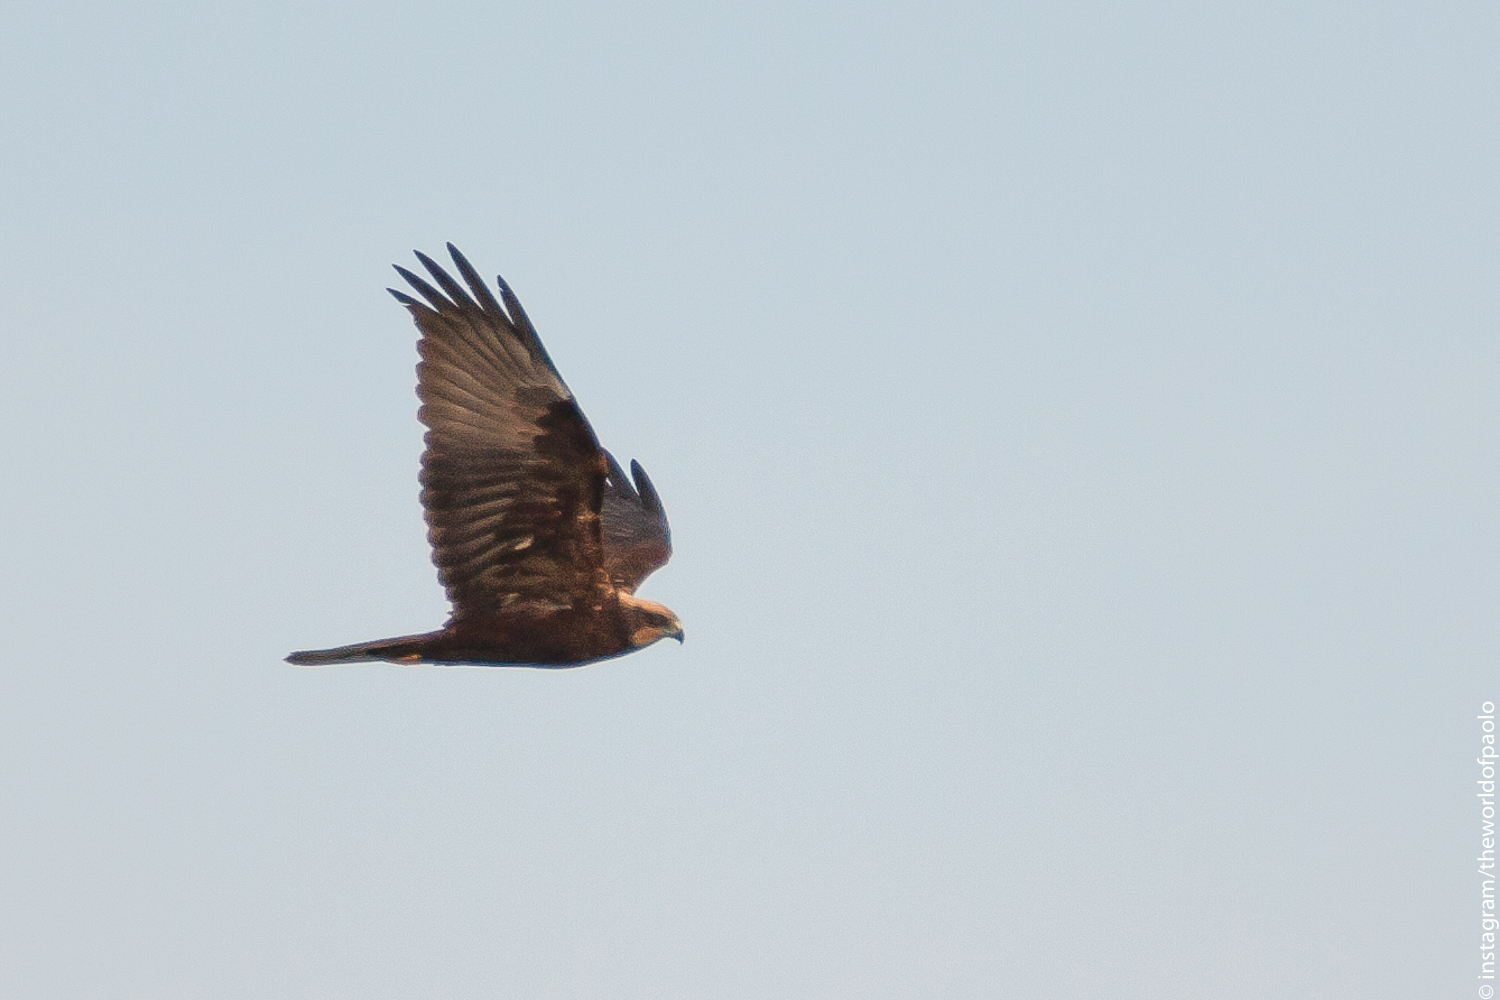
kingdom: Animalia
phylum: Chordata
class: Aves
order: Accipitriformes
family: Accipitridae
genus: Circus
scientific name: Circus aeruginosus
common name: Western marsh harrier
